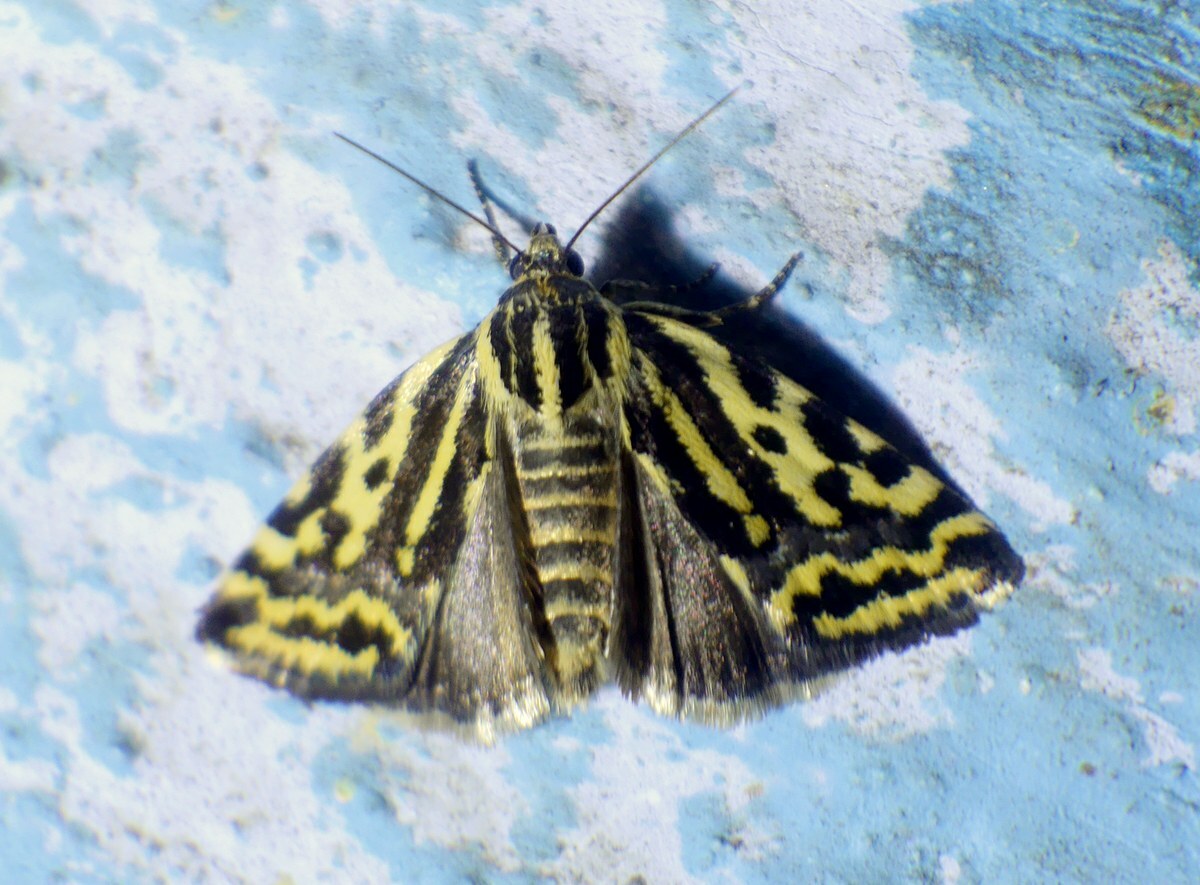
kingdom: Animalia
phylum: Arthropoda
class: Insecta
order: Lepidoptera
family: Noctuidae
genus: Acontia
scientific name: Acontia trabealis
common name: Spotted sulphur
